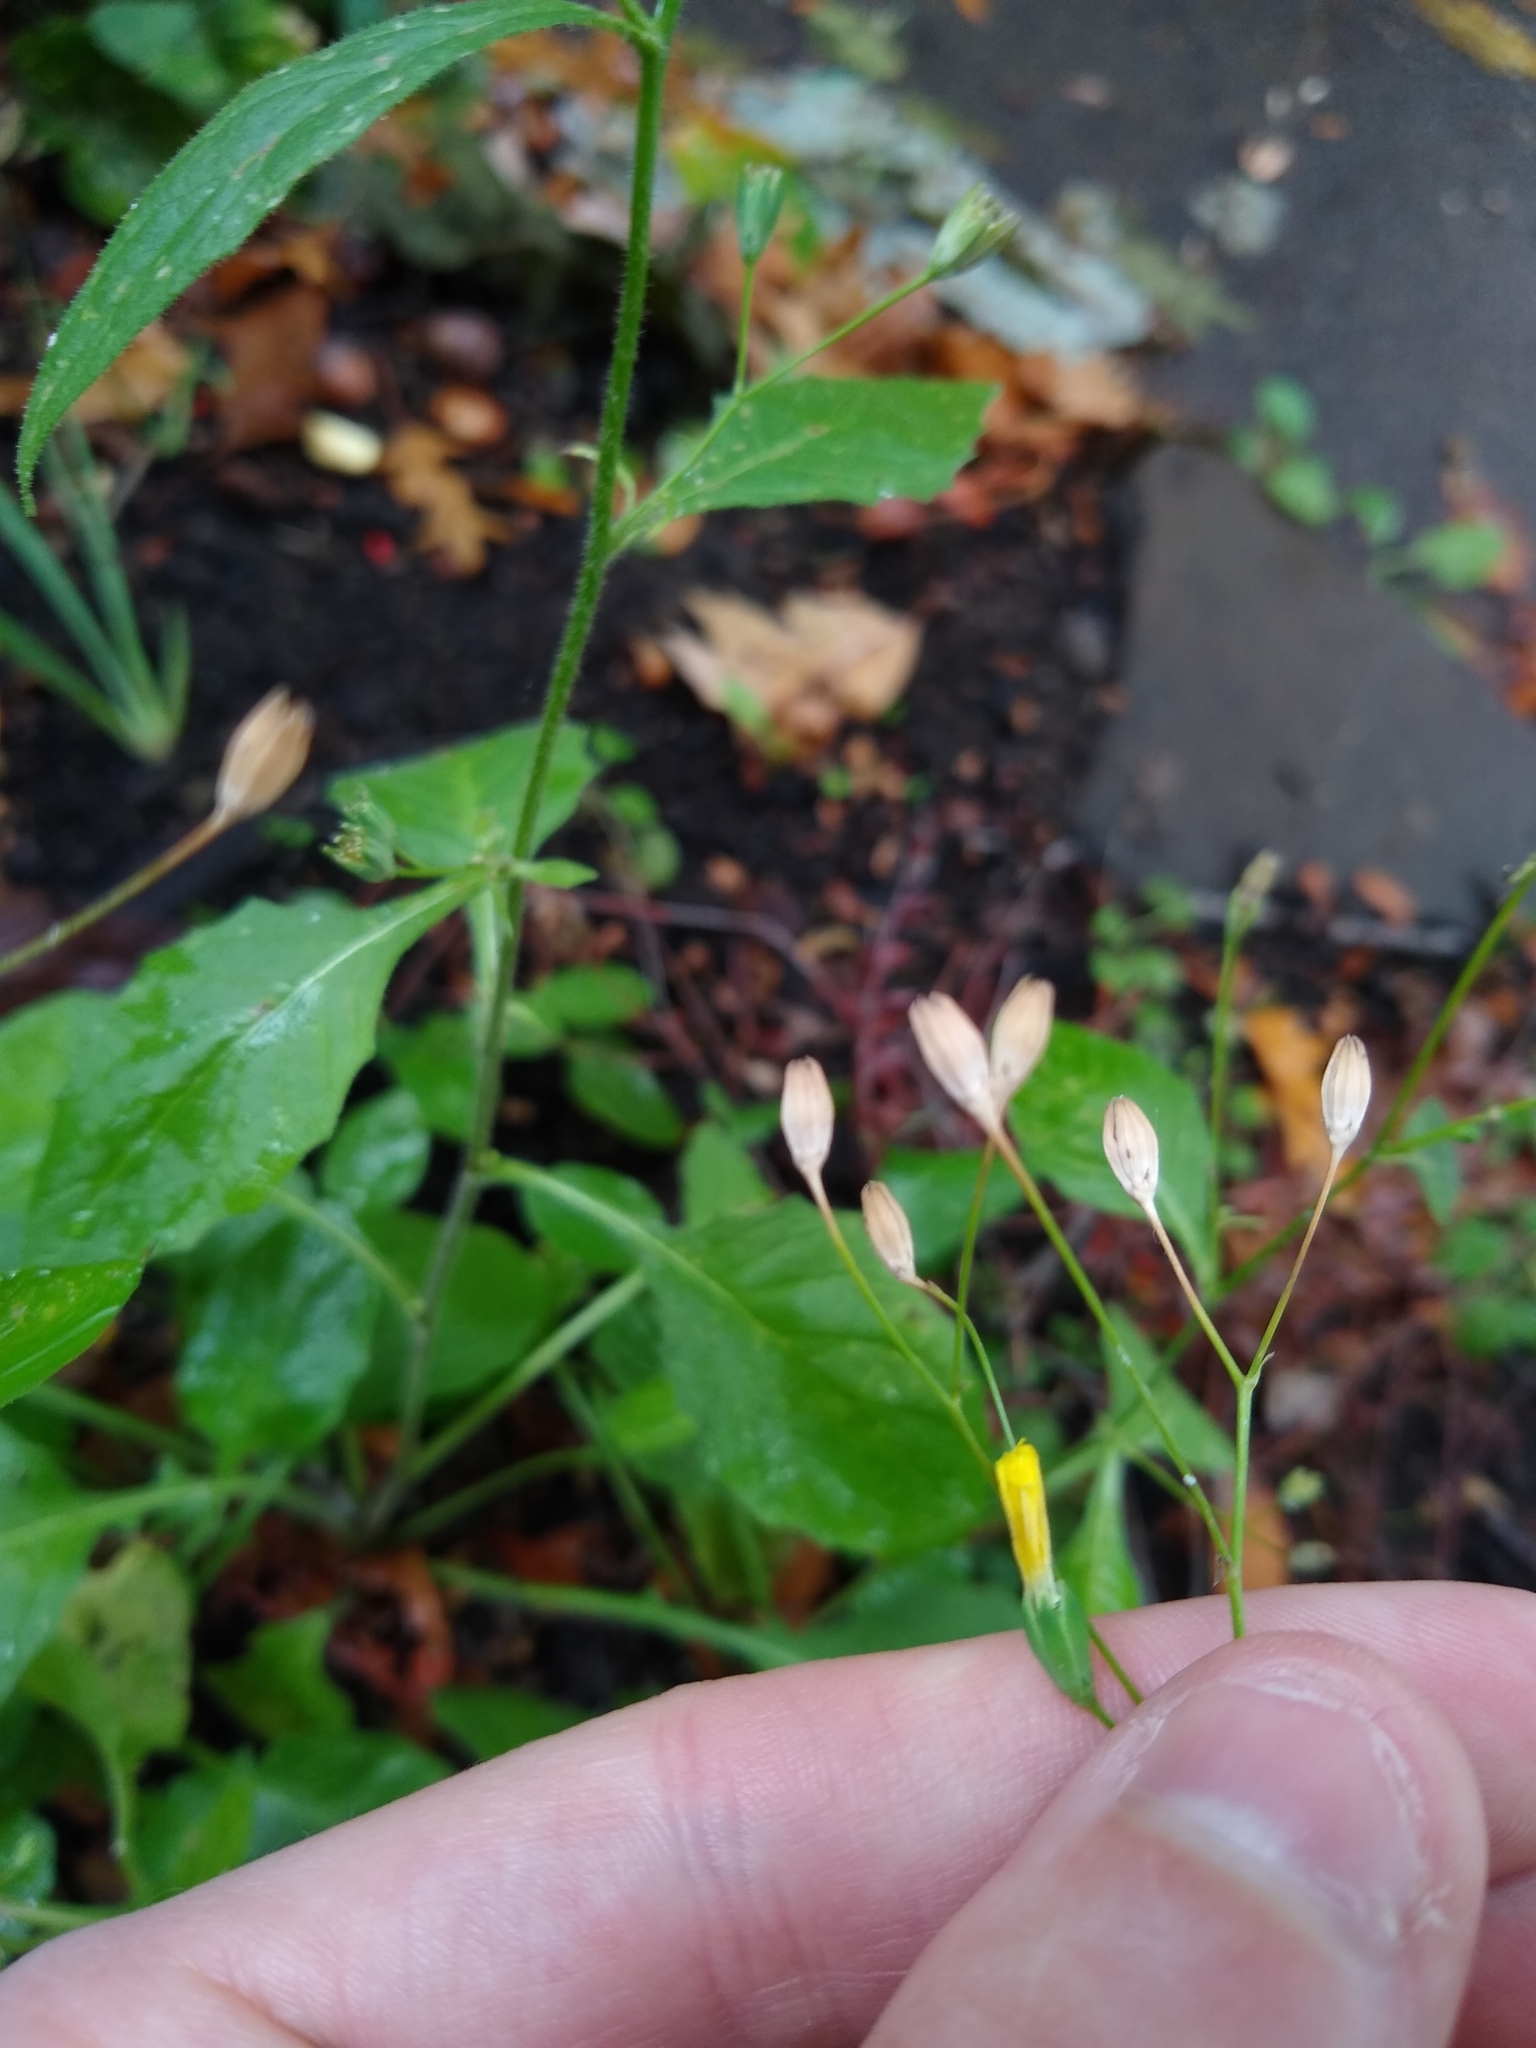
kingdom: Plantae
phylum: Tracheophyta
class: Magnoliopsida
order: Asterales
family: Asteraceae
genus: Lapsana
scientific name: Lapsana communis
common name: Nipplewort
